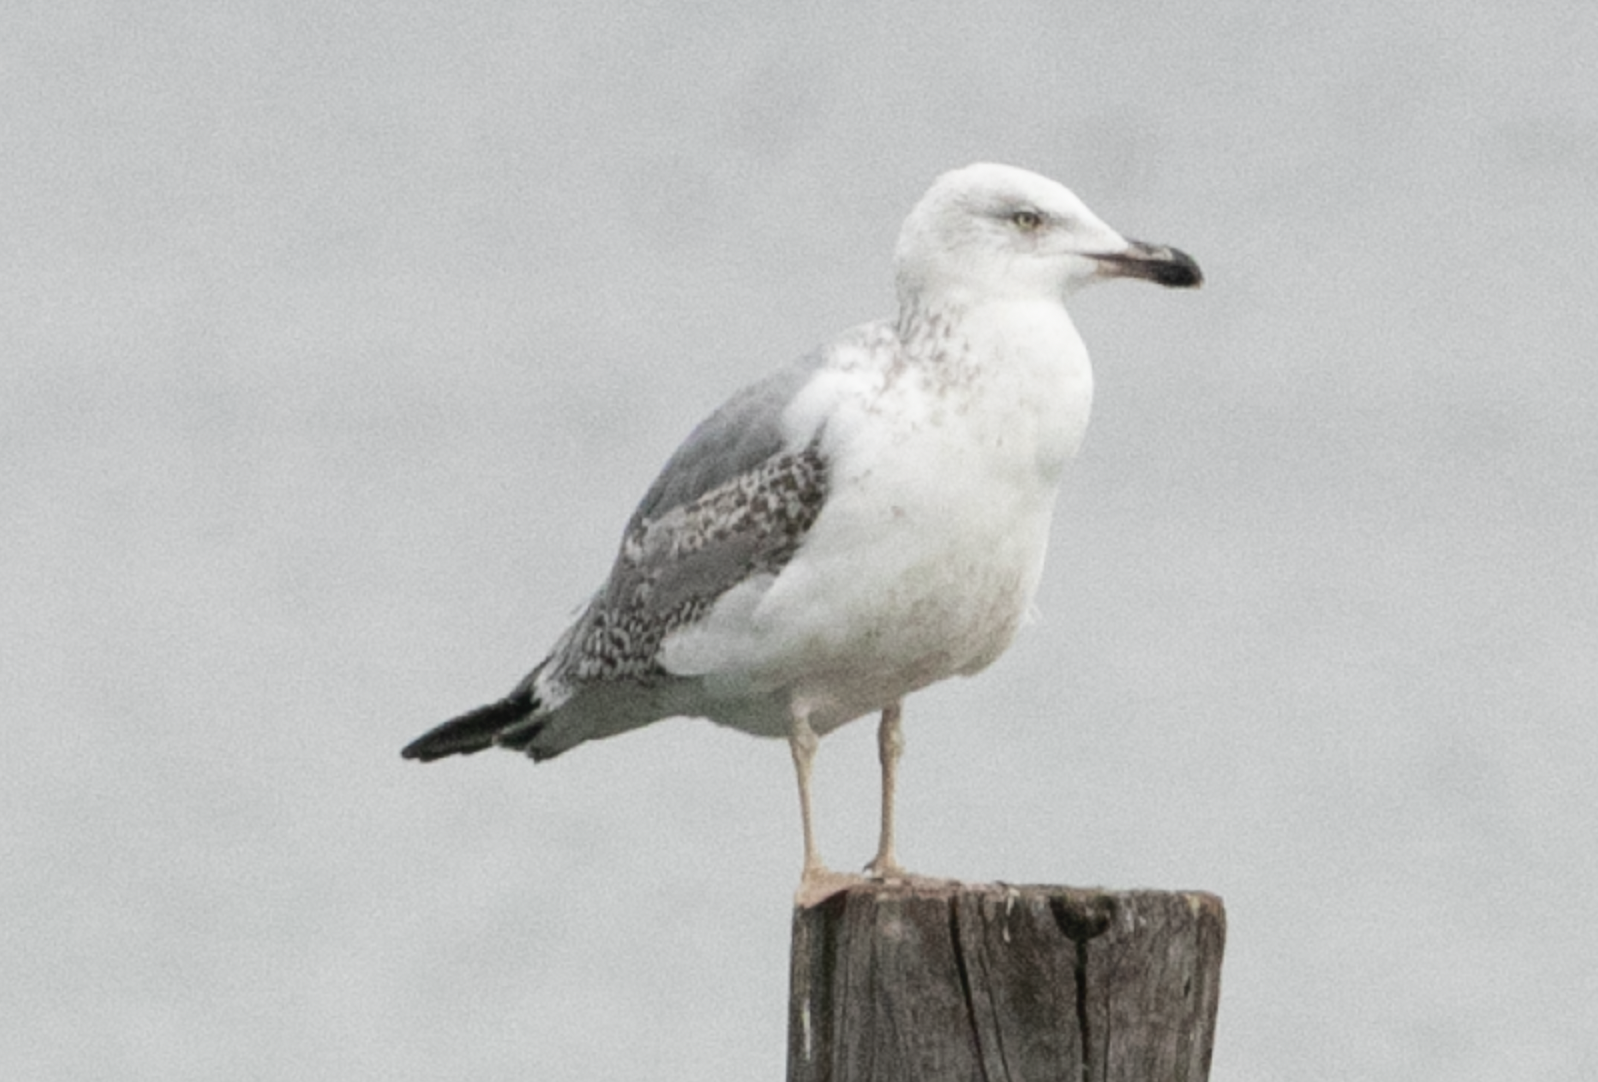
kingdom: Animalia
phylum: Chordata
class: Aves
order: Charadriiformes
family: Laridae
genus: Larus
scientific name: Larus michahellis
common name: Yellow-legged gull
